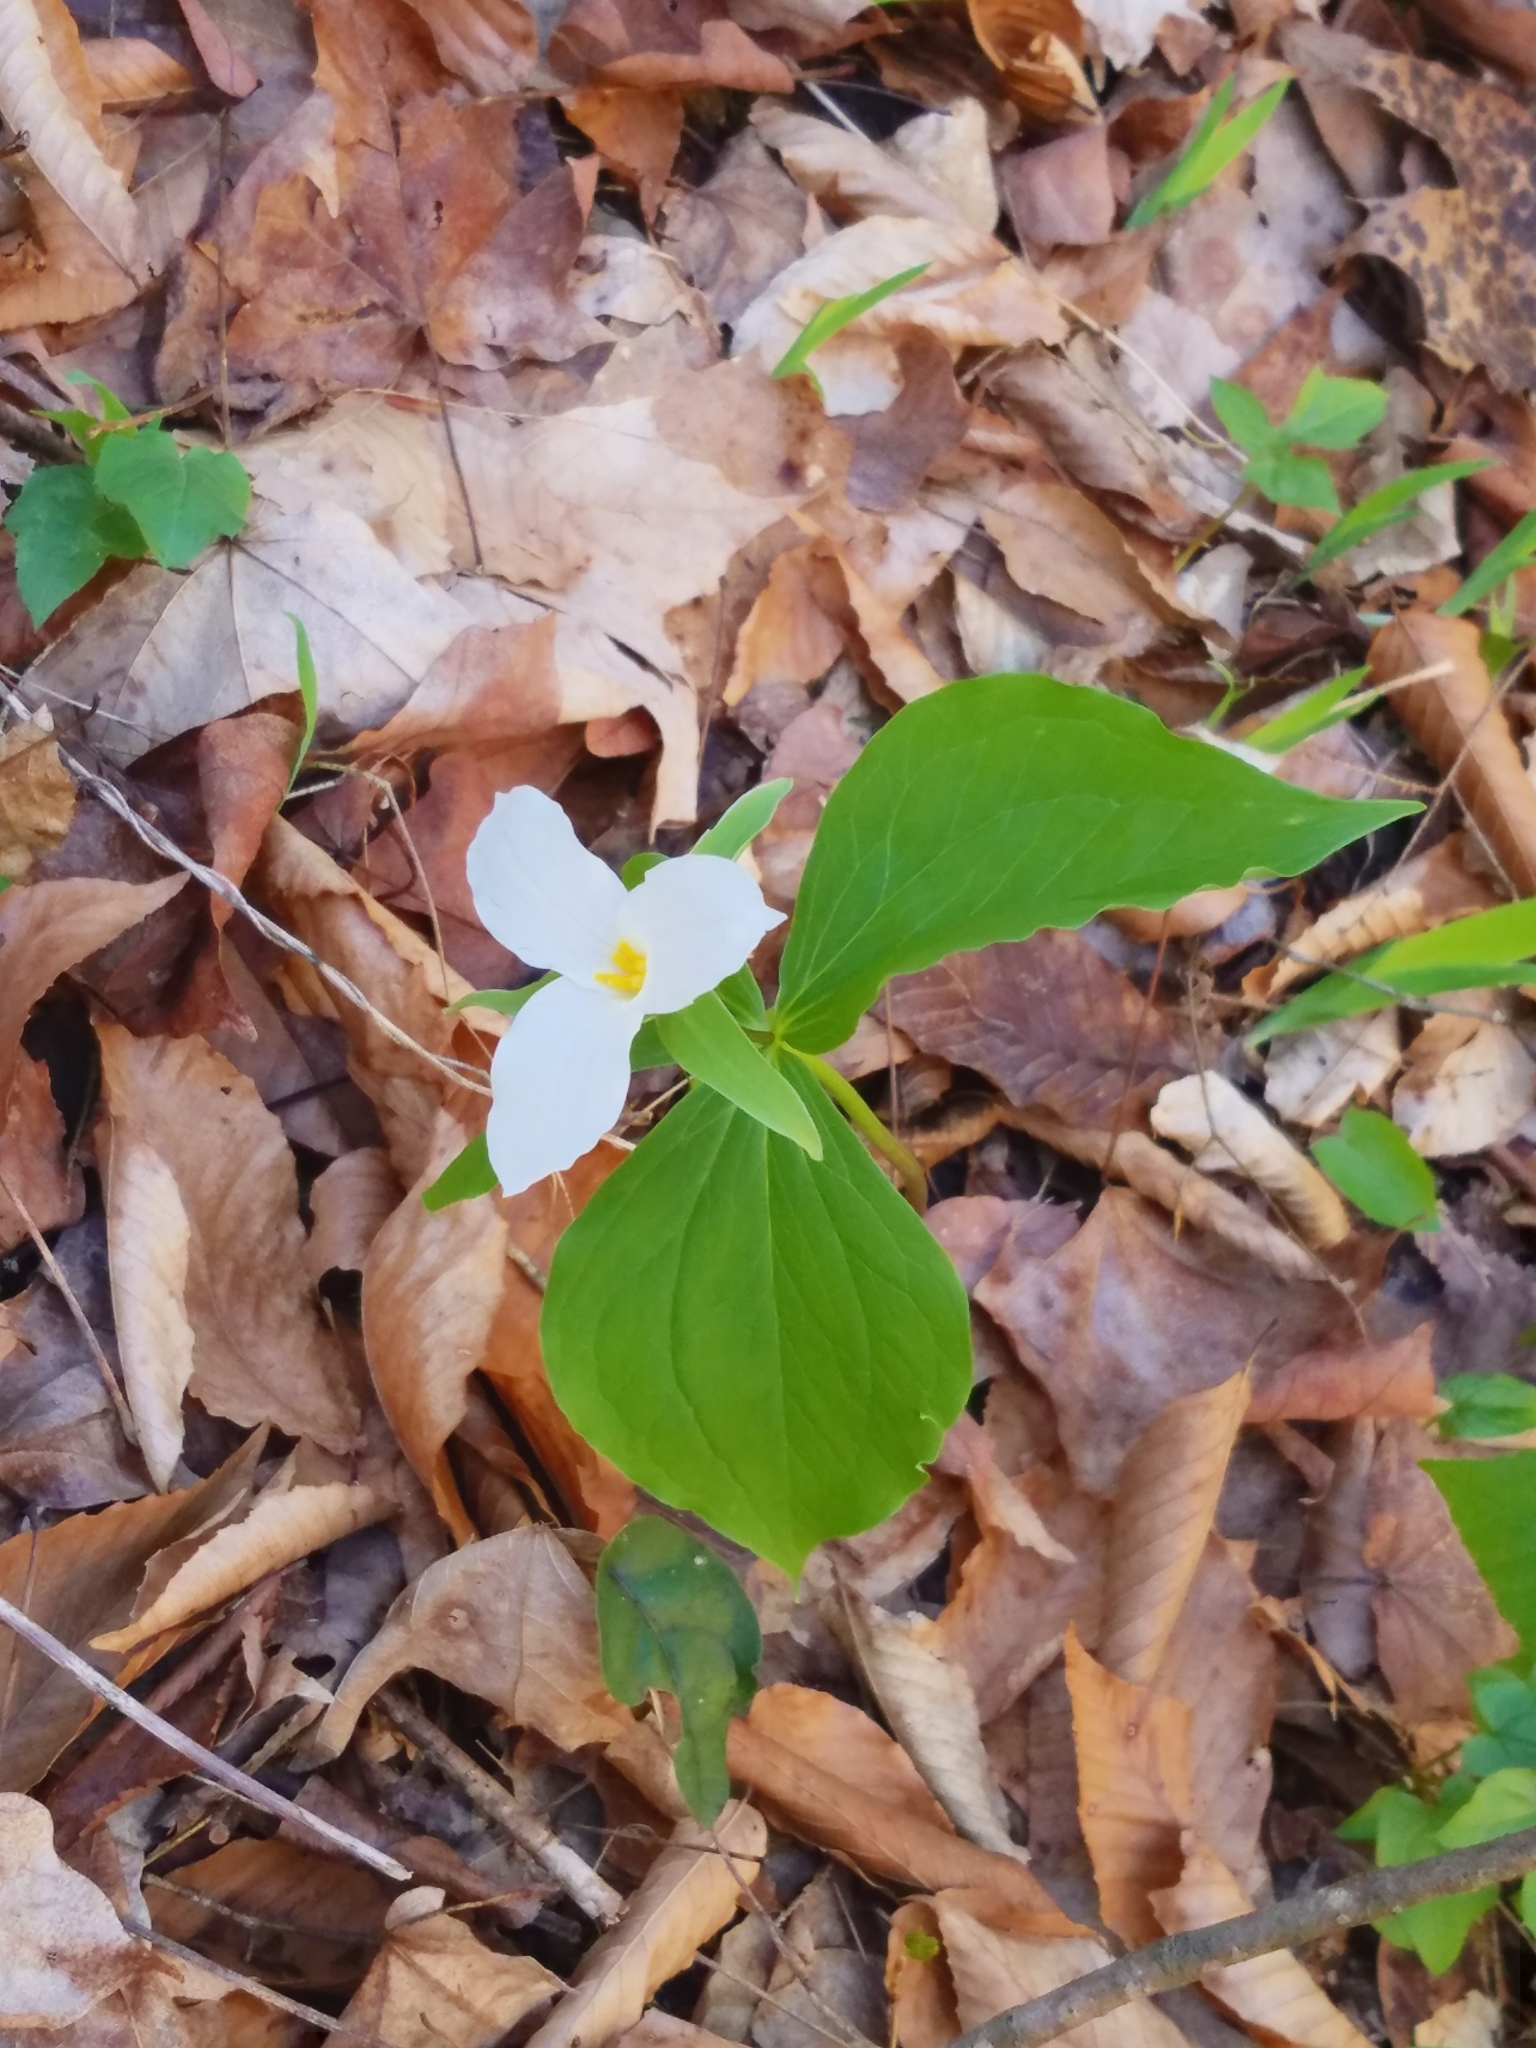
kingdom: Plantae
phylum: Tracheophyta
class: Liliopsida
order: Liliales
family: Melanthiaceae
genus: Trillium
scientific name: Trillium grandiflorum
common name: Great white trillium
